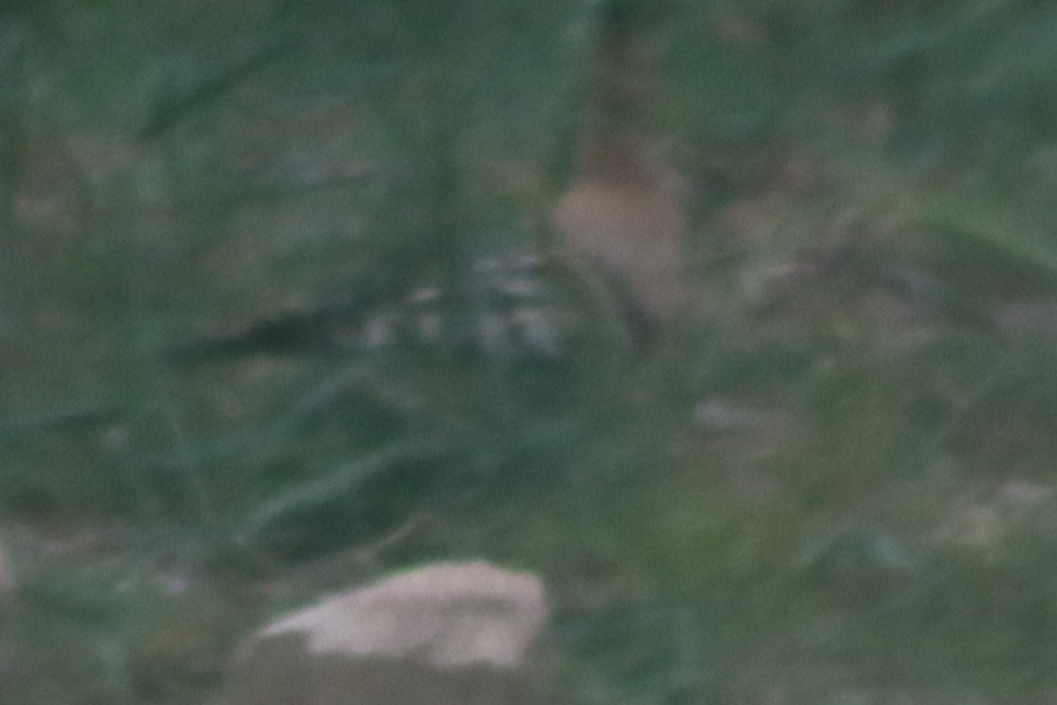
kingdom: Animalia
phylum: Chordata
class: Aves
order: Bucerotiformes
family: Upupidae
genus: Upupa
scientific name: Upupa epops
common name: Eurasian hoopoe
